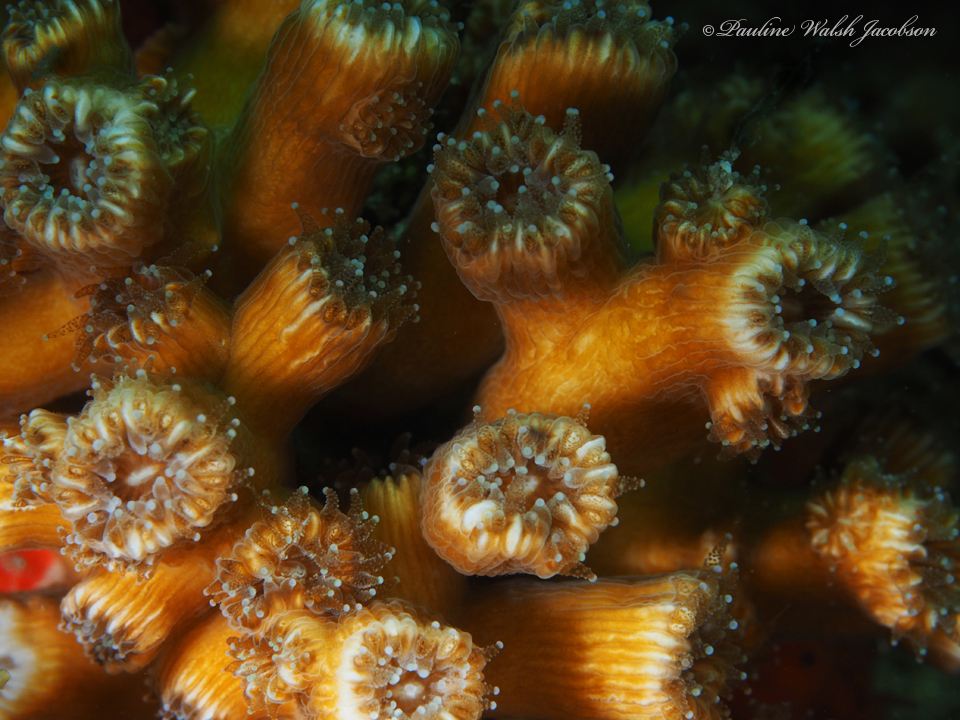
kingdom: Animalia
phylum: Cnidaria
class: Anthozoa
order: Scleractinia
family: Cladocoridae
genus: Cladocora
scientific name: Cladocora arbuscula
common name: Tube coral
